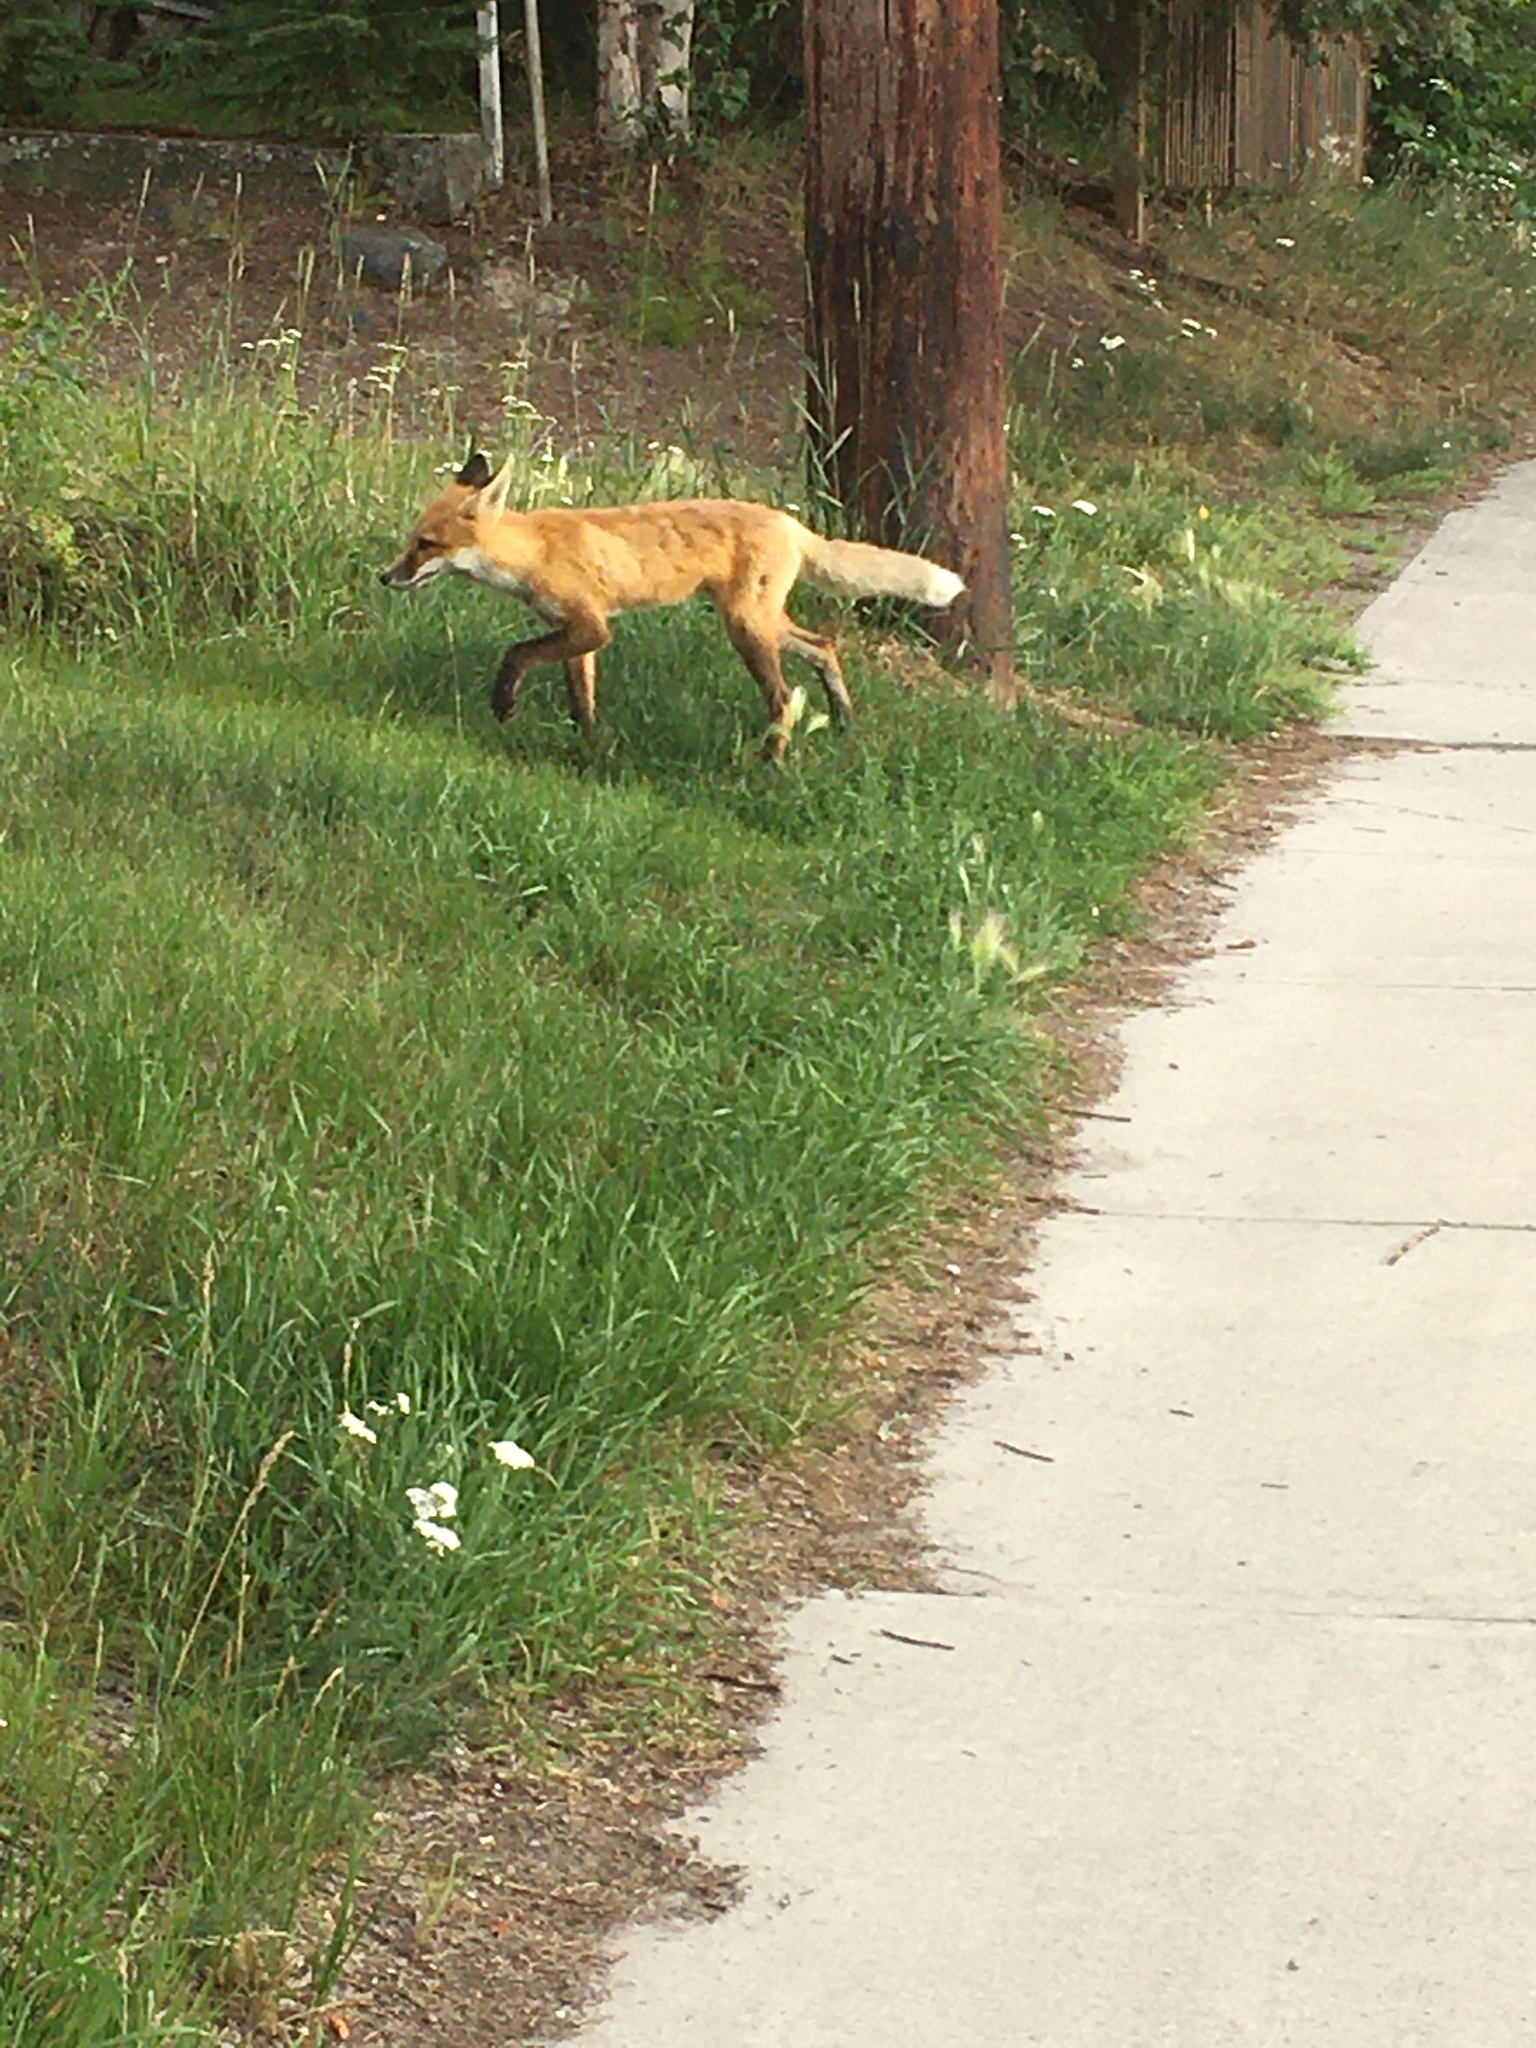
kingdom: Animalia
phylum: Chordata
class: Mammalia
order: Carnivora
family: Canidae
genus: Vulpes
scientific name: Vulpes vulpes
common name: Red fox
